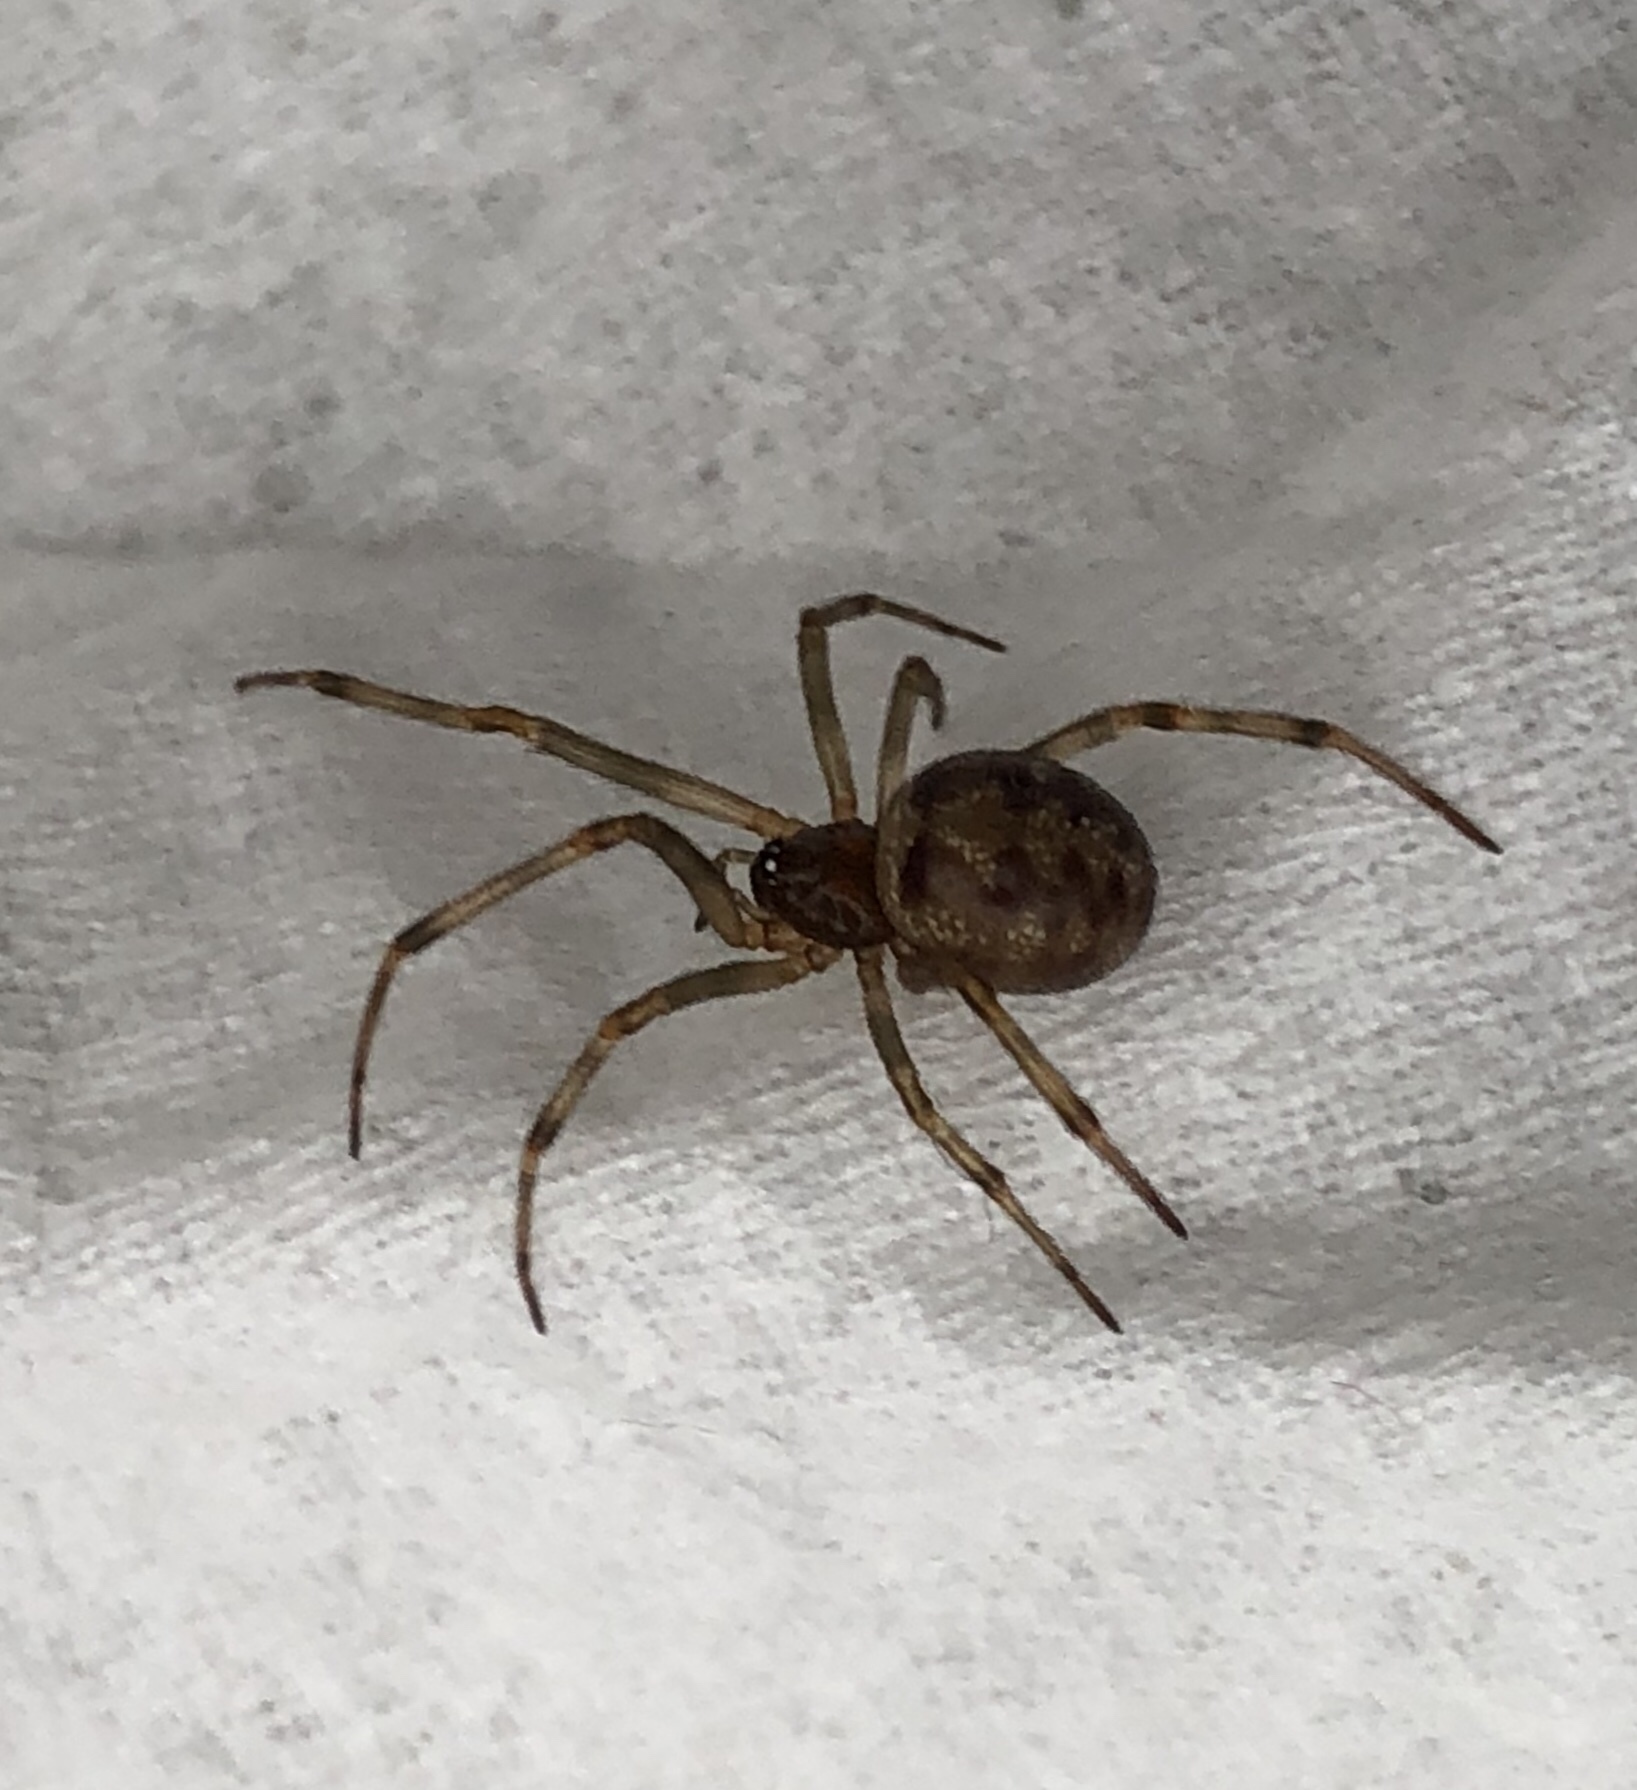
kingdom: Animalia
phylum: Arthropoda
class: Arachnida
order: Araneae
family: Theridiidae
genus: Steatoda
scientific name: Steatoda triangulosa
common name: Triangulate bud spider
